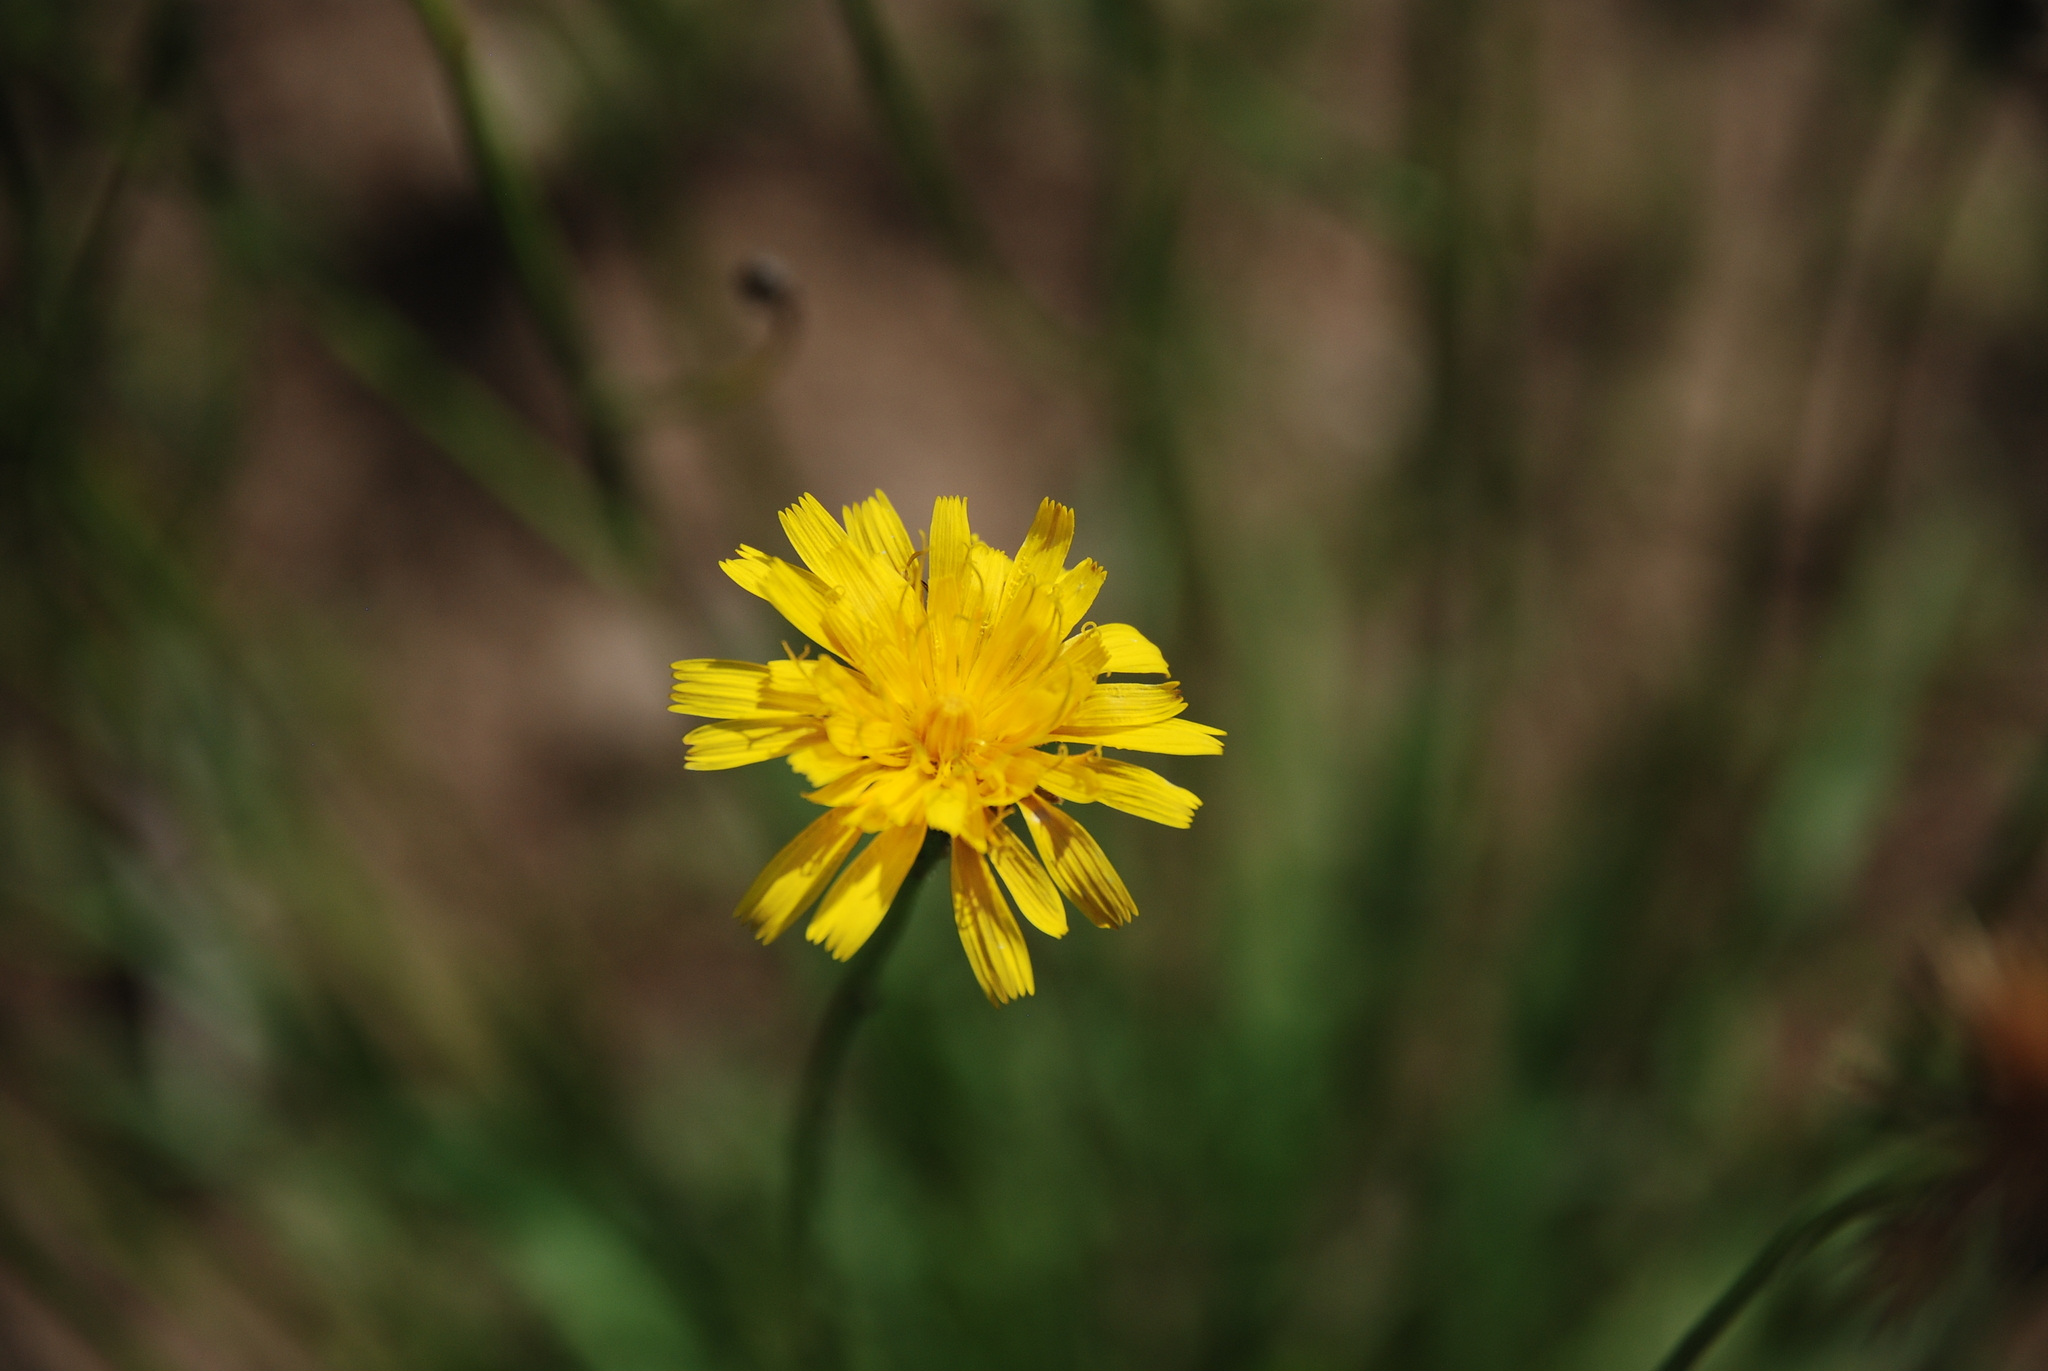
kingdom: Plantae
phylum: Tracheophyta
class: Magnoliopsida
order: Asterales
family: Asteraceae
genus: Scorzoneroides
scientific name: Scorzoneroides autumnalis
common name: Autumn hawkbit
